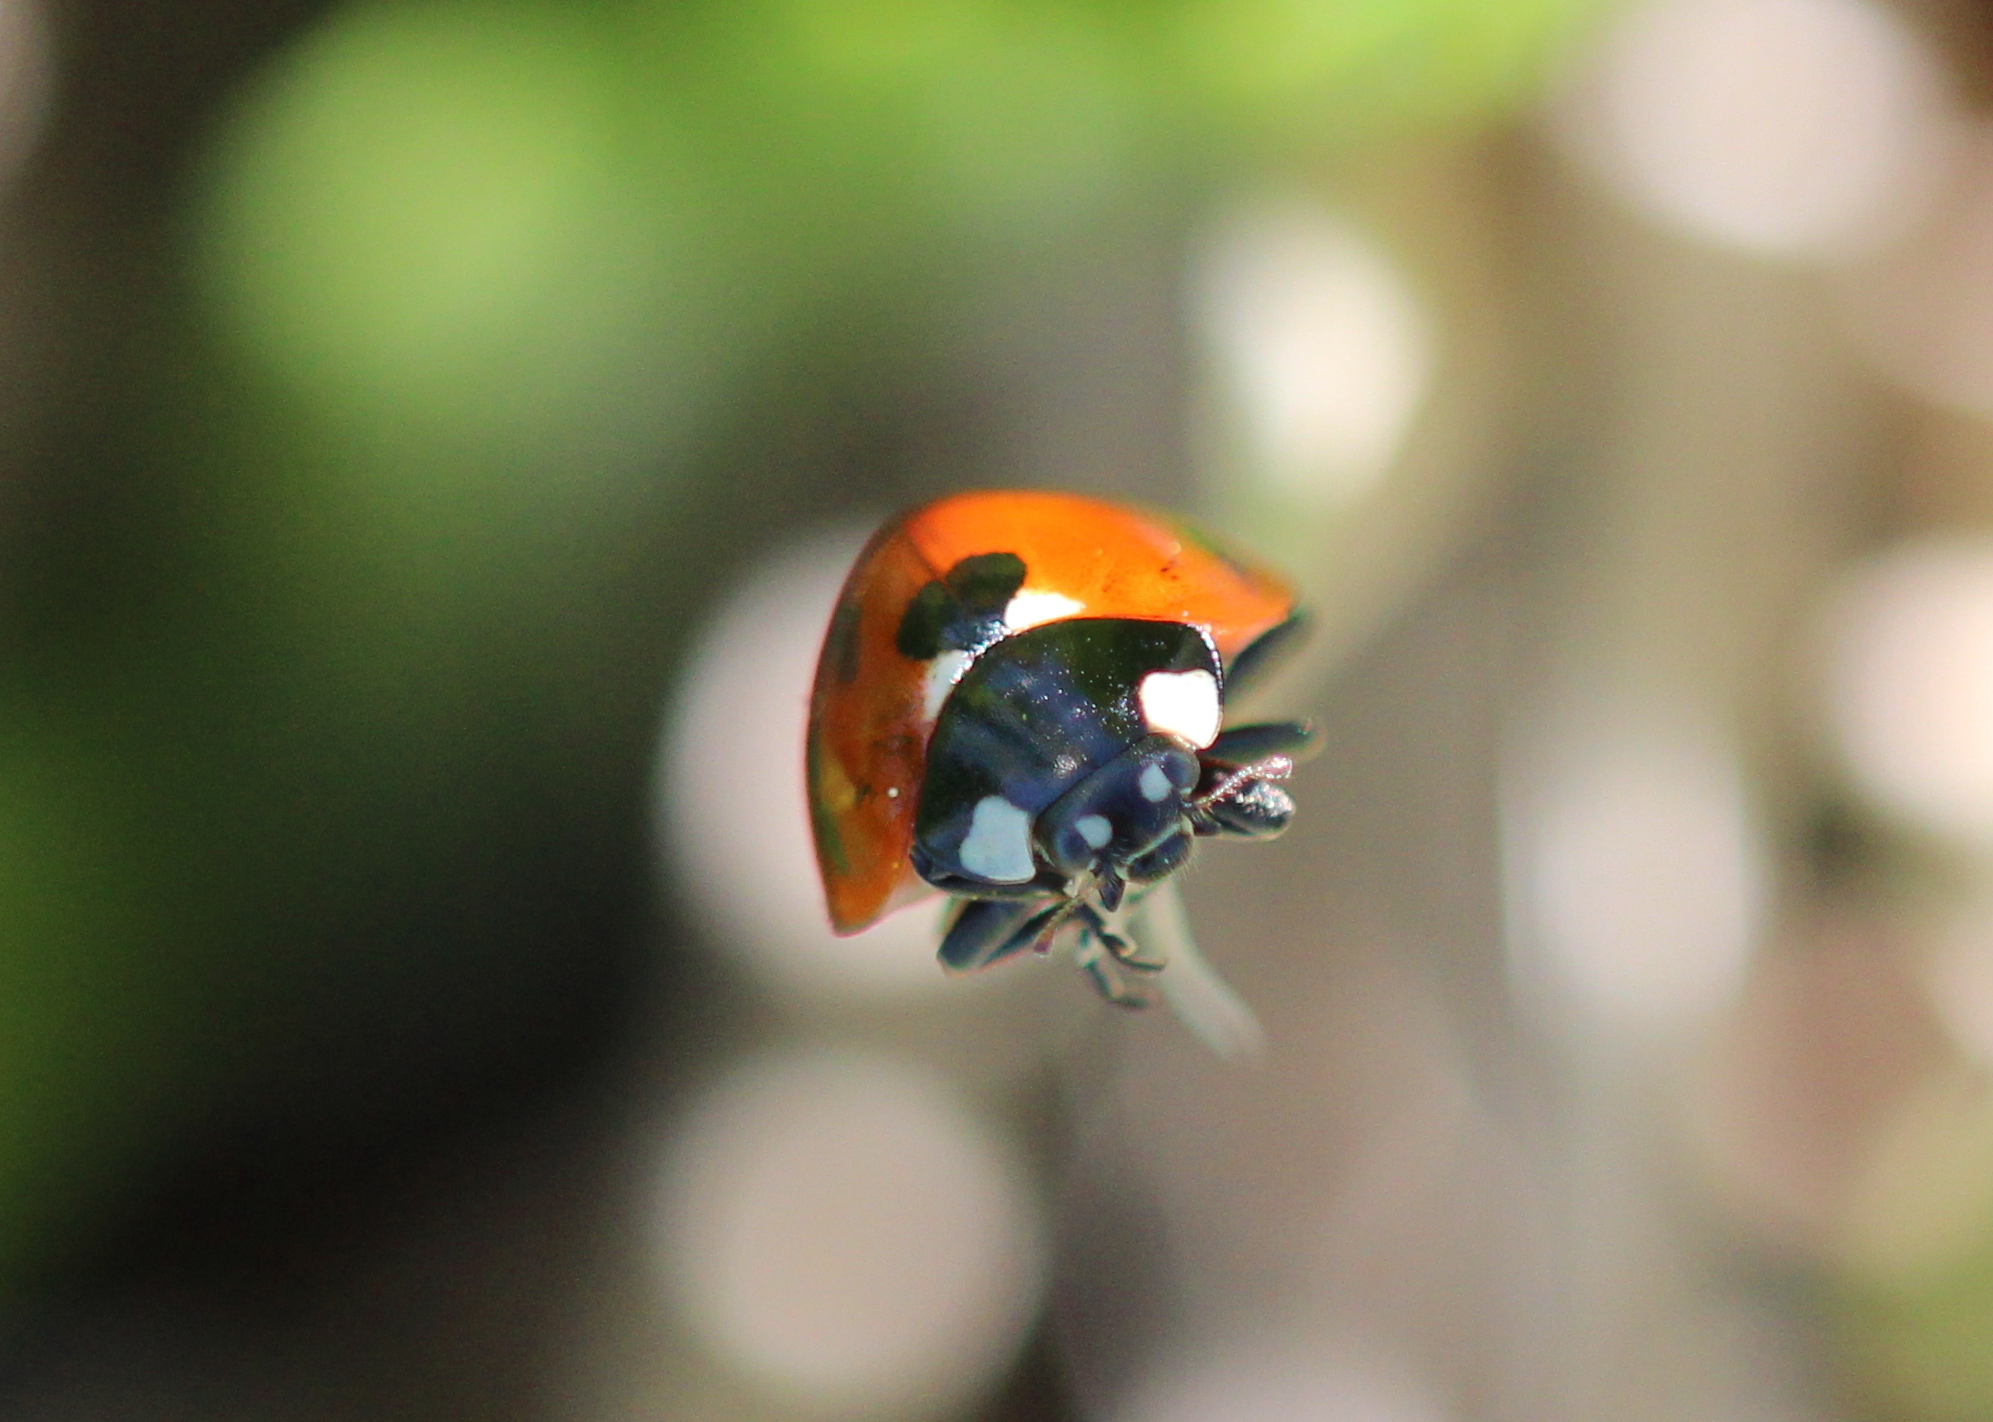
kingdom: Animalia
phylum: Arthropoda
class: Insecta
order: Coleoptera
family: Coccinellidae
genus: Coccinella
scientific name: Coccinella septempunctata
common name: Sevenspotted lady beetle
